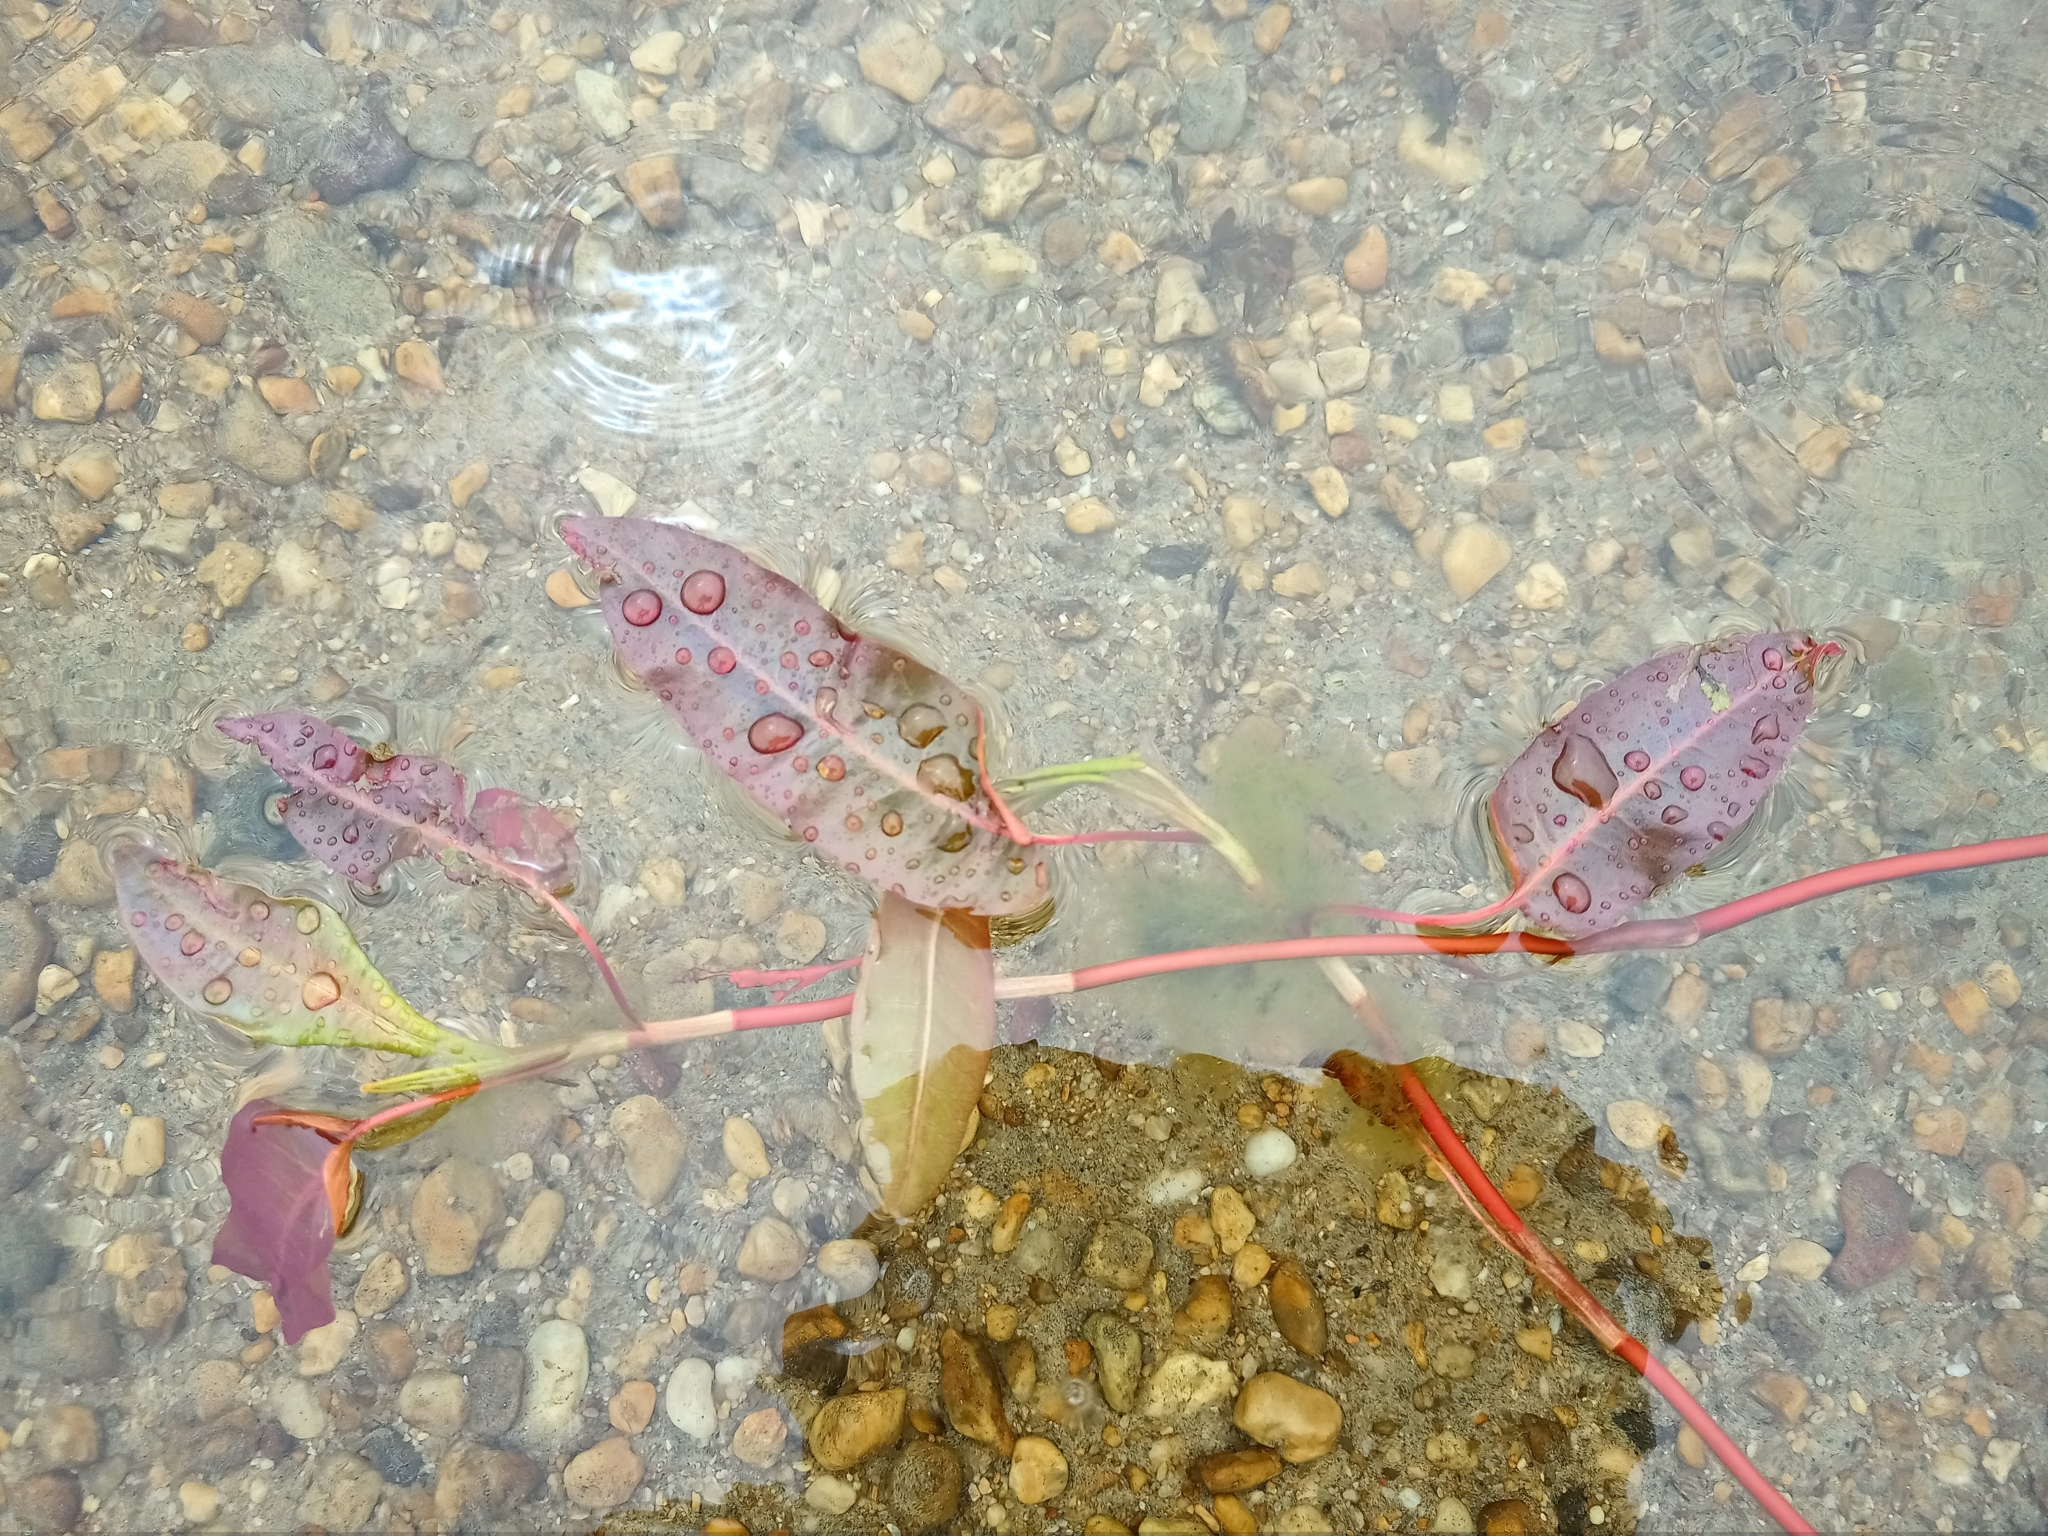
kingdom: Plantae
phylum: Tracheophyta
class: Magnoliopsida
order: Caryophyllales
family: Polygonaceae
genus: Persicaria
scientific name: Persicaria amphibia
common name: Amphibious bistort
